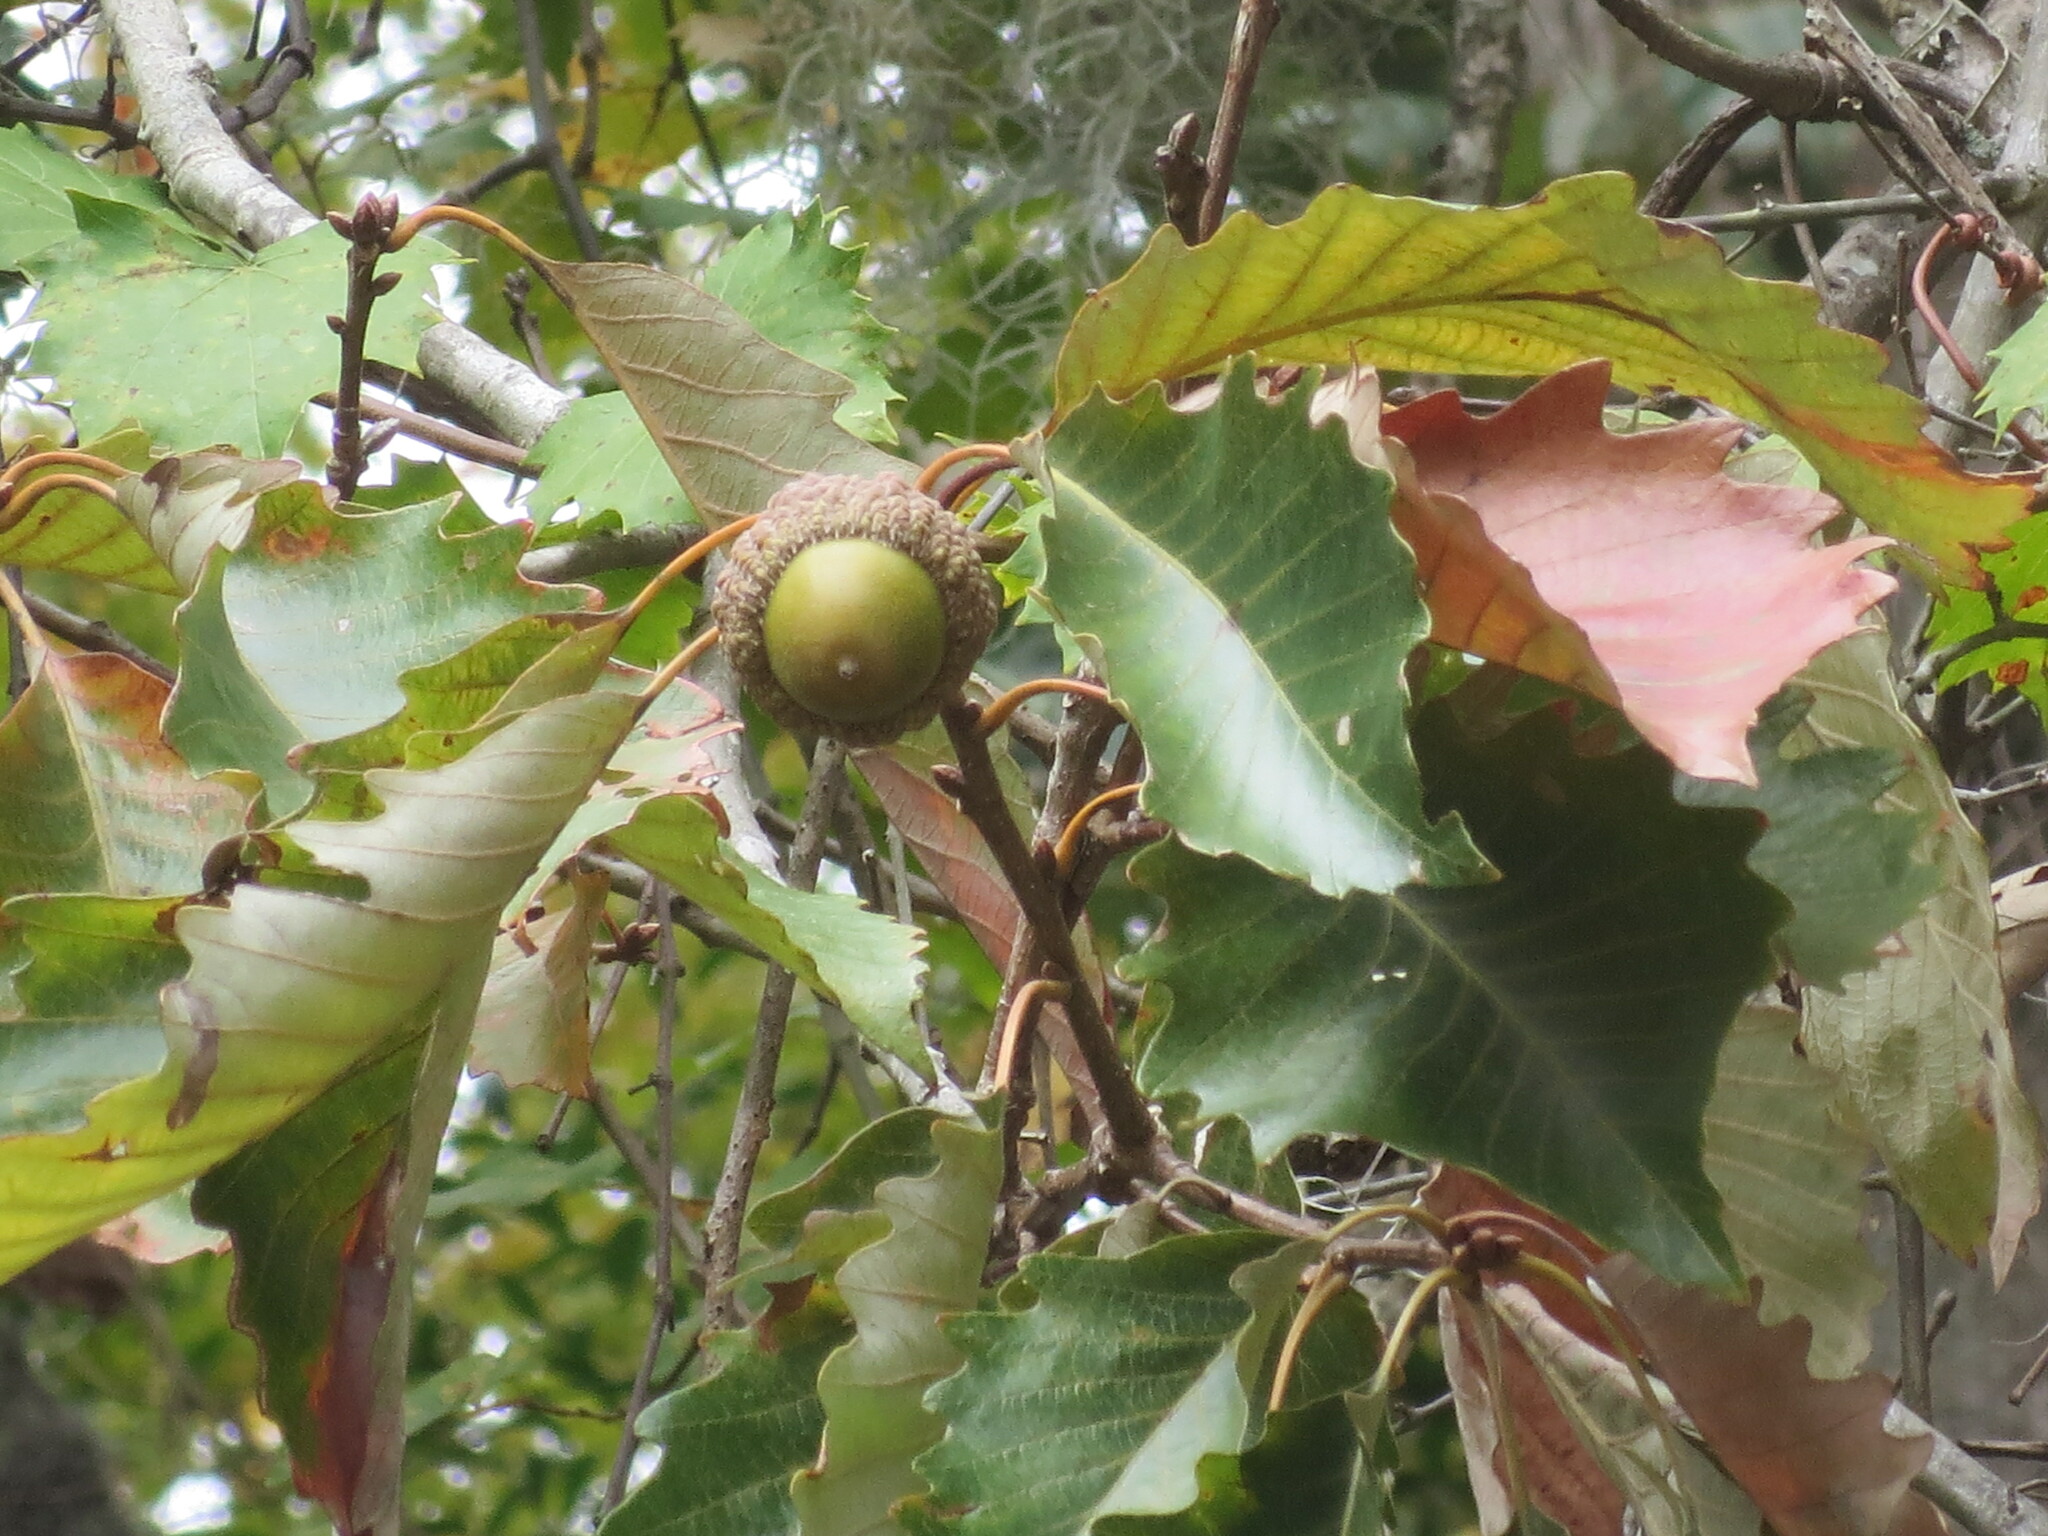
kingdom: Plantae
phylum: Tracheophyta
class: Magnoliopsida
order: Fagales
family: Fagaceae
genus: Quercus
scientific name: Quercus michauxii
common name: Swamp chestnut oak
